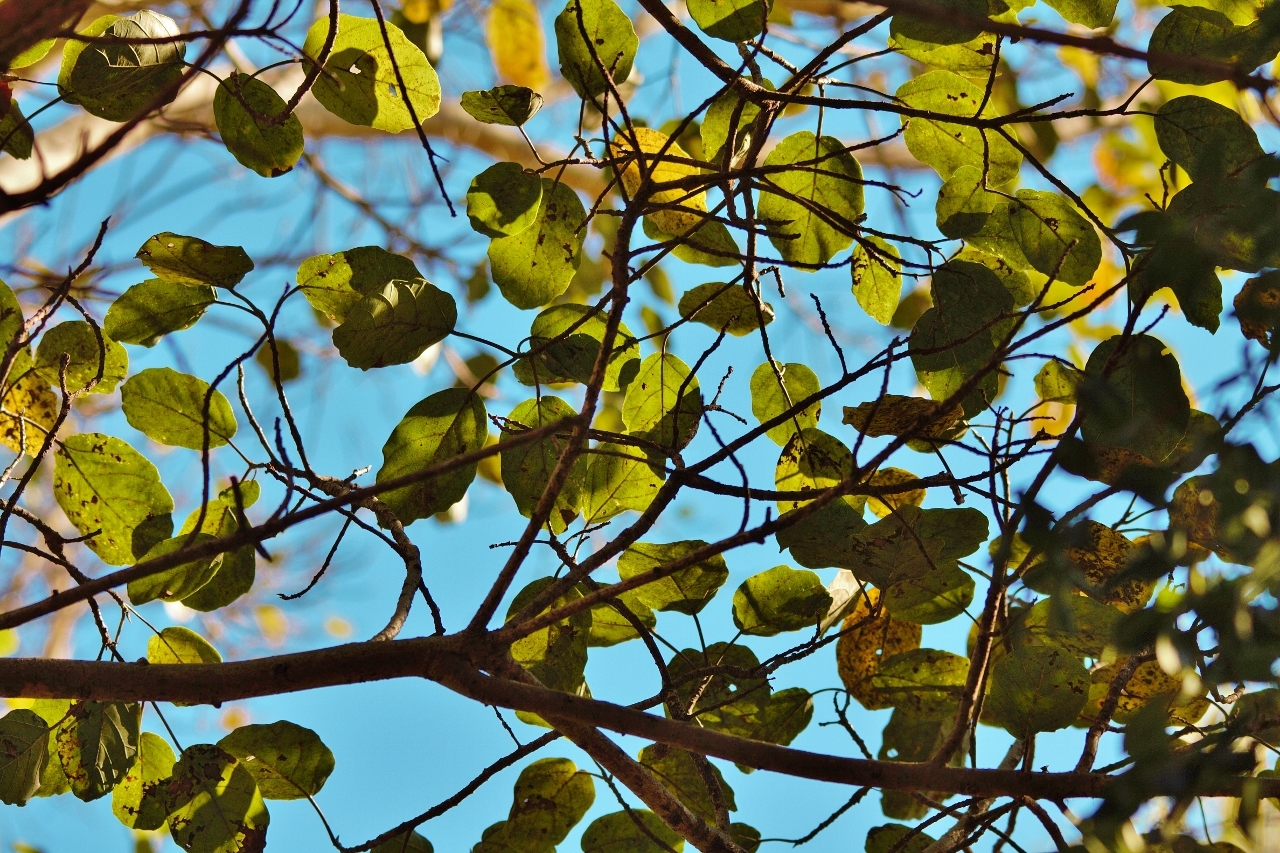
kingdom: Plantae
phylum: Tracheophyta
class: Magnoliopsida
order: Rosales
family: Moraceae
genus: Ficus
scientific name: Ficus sur
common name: Cape fig
